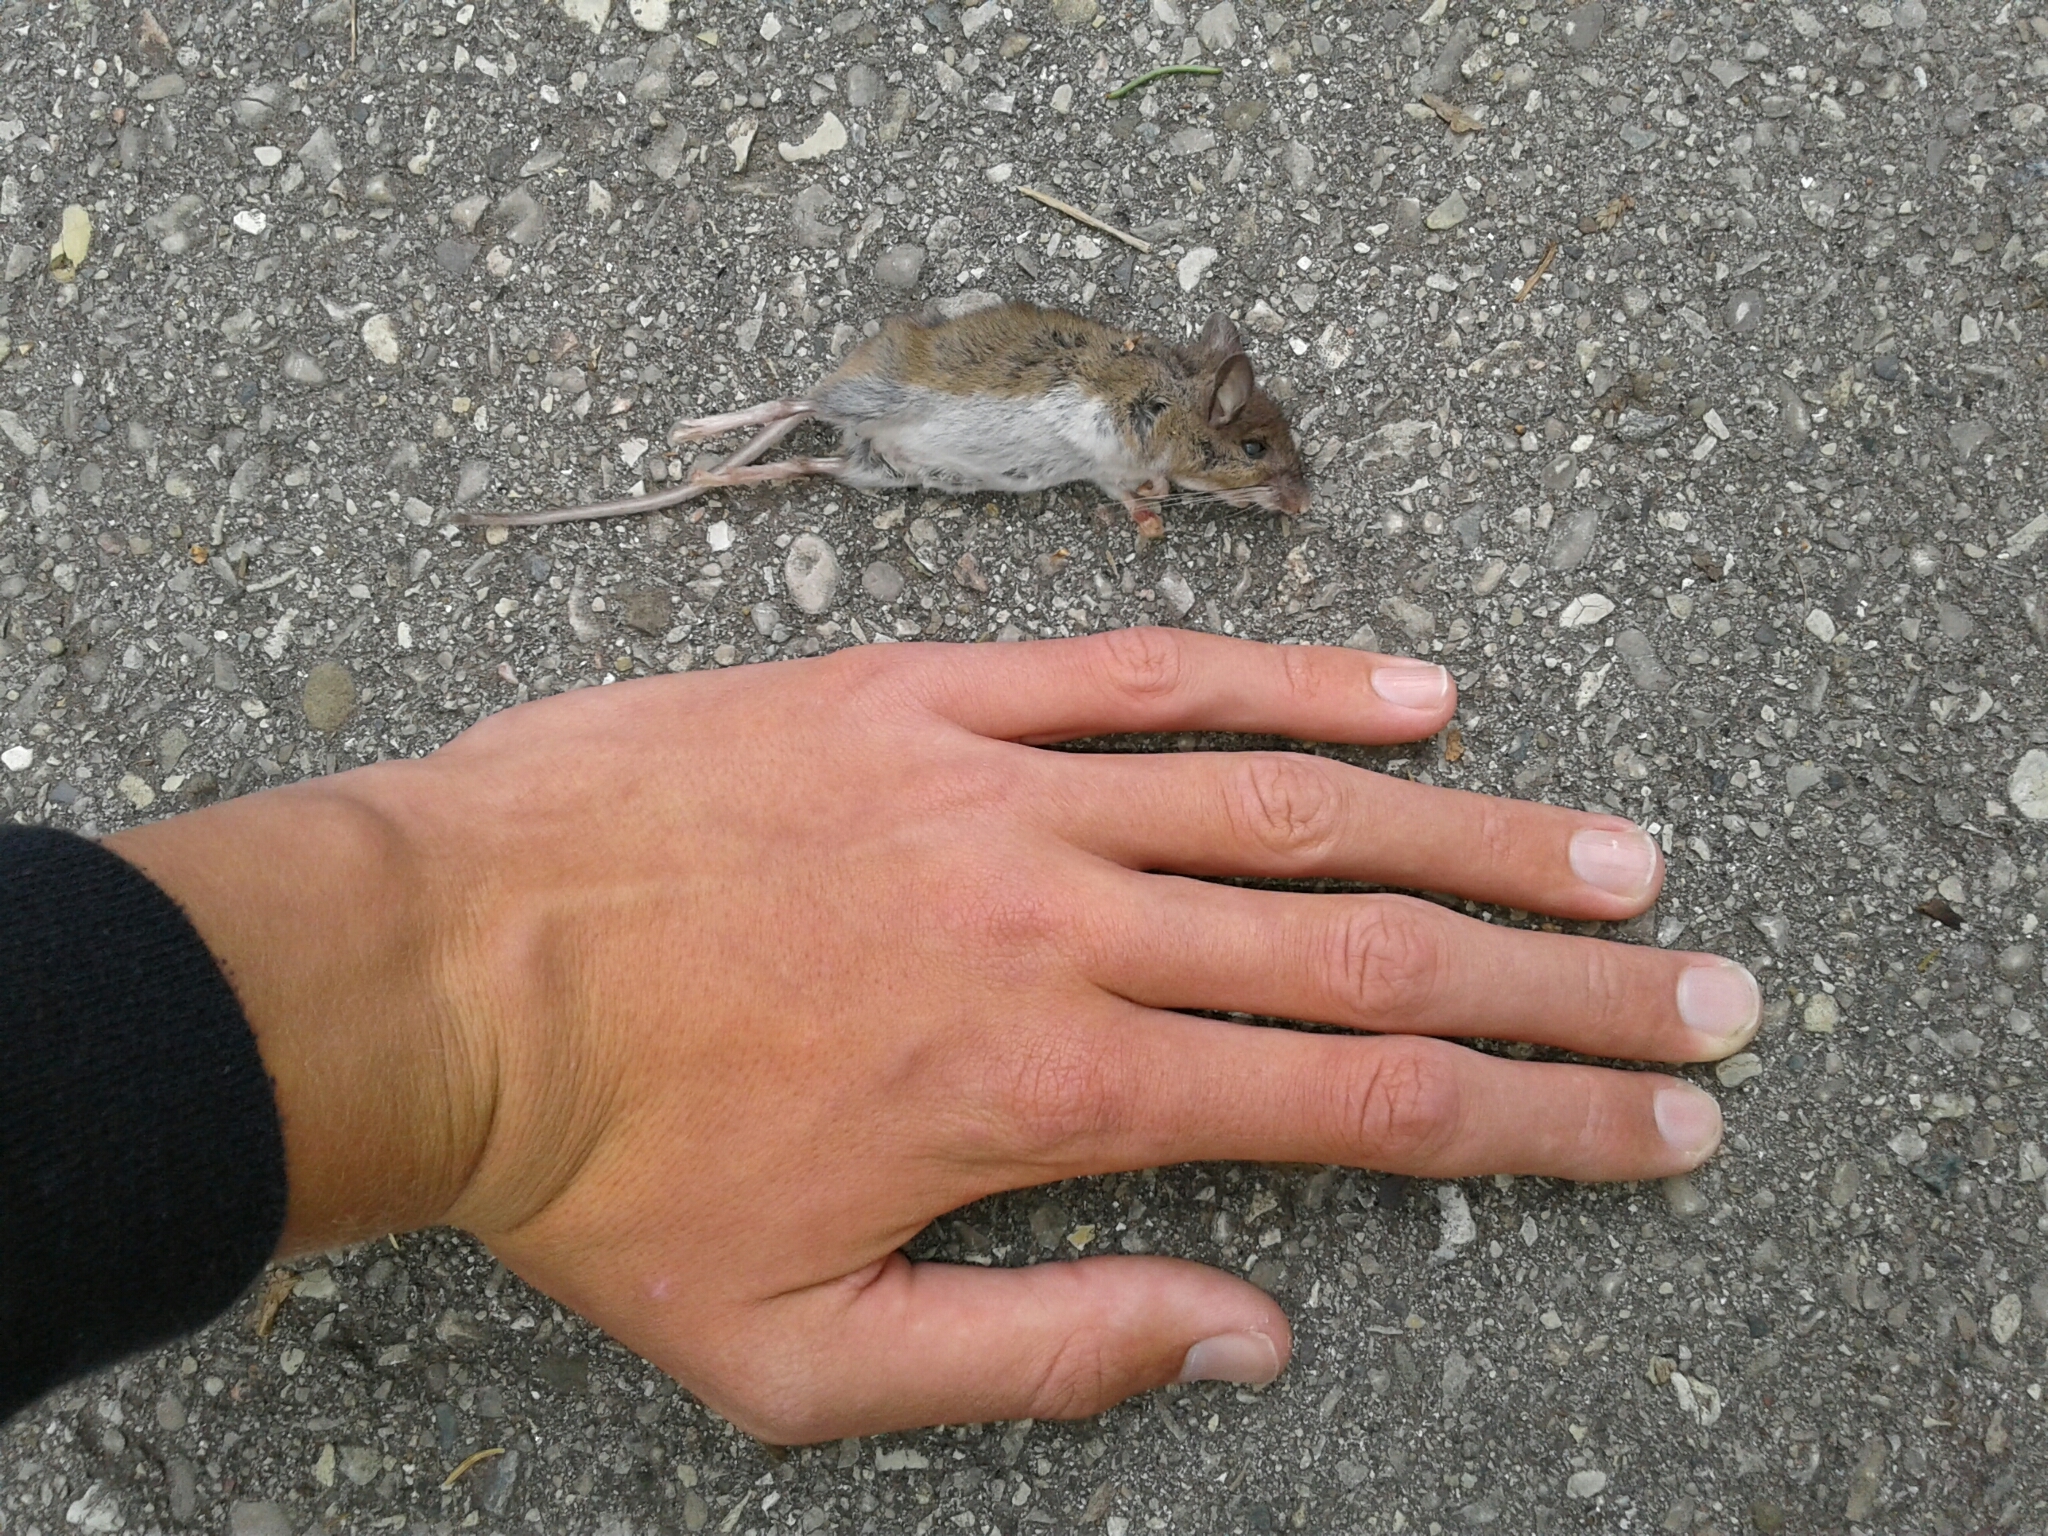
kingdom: Animalia
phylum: Chordata
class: Mammalia
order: Rodentia
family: Cricetidae
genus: Peromyscus
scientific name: Peromyscus
